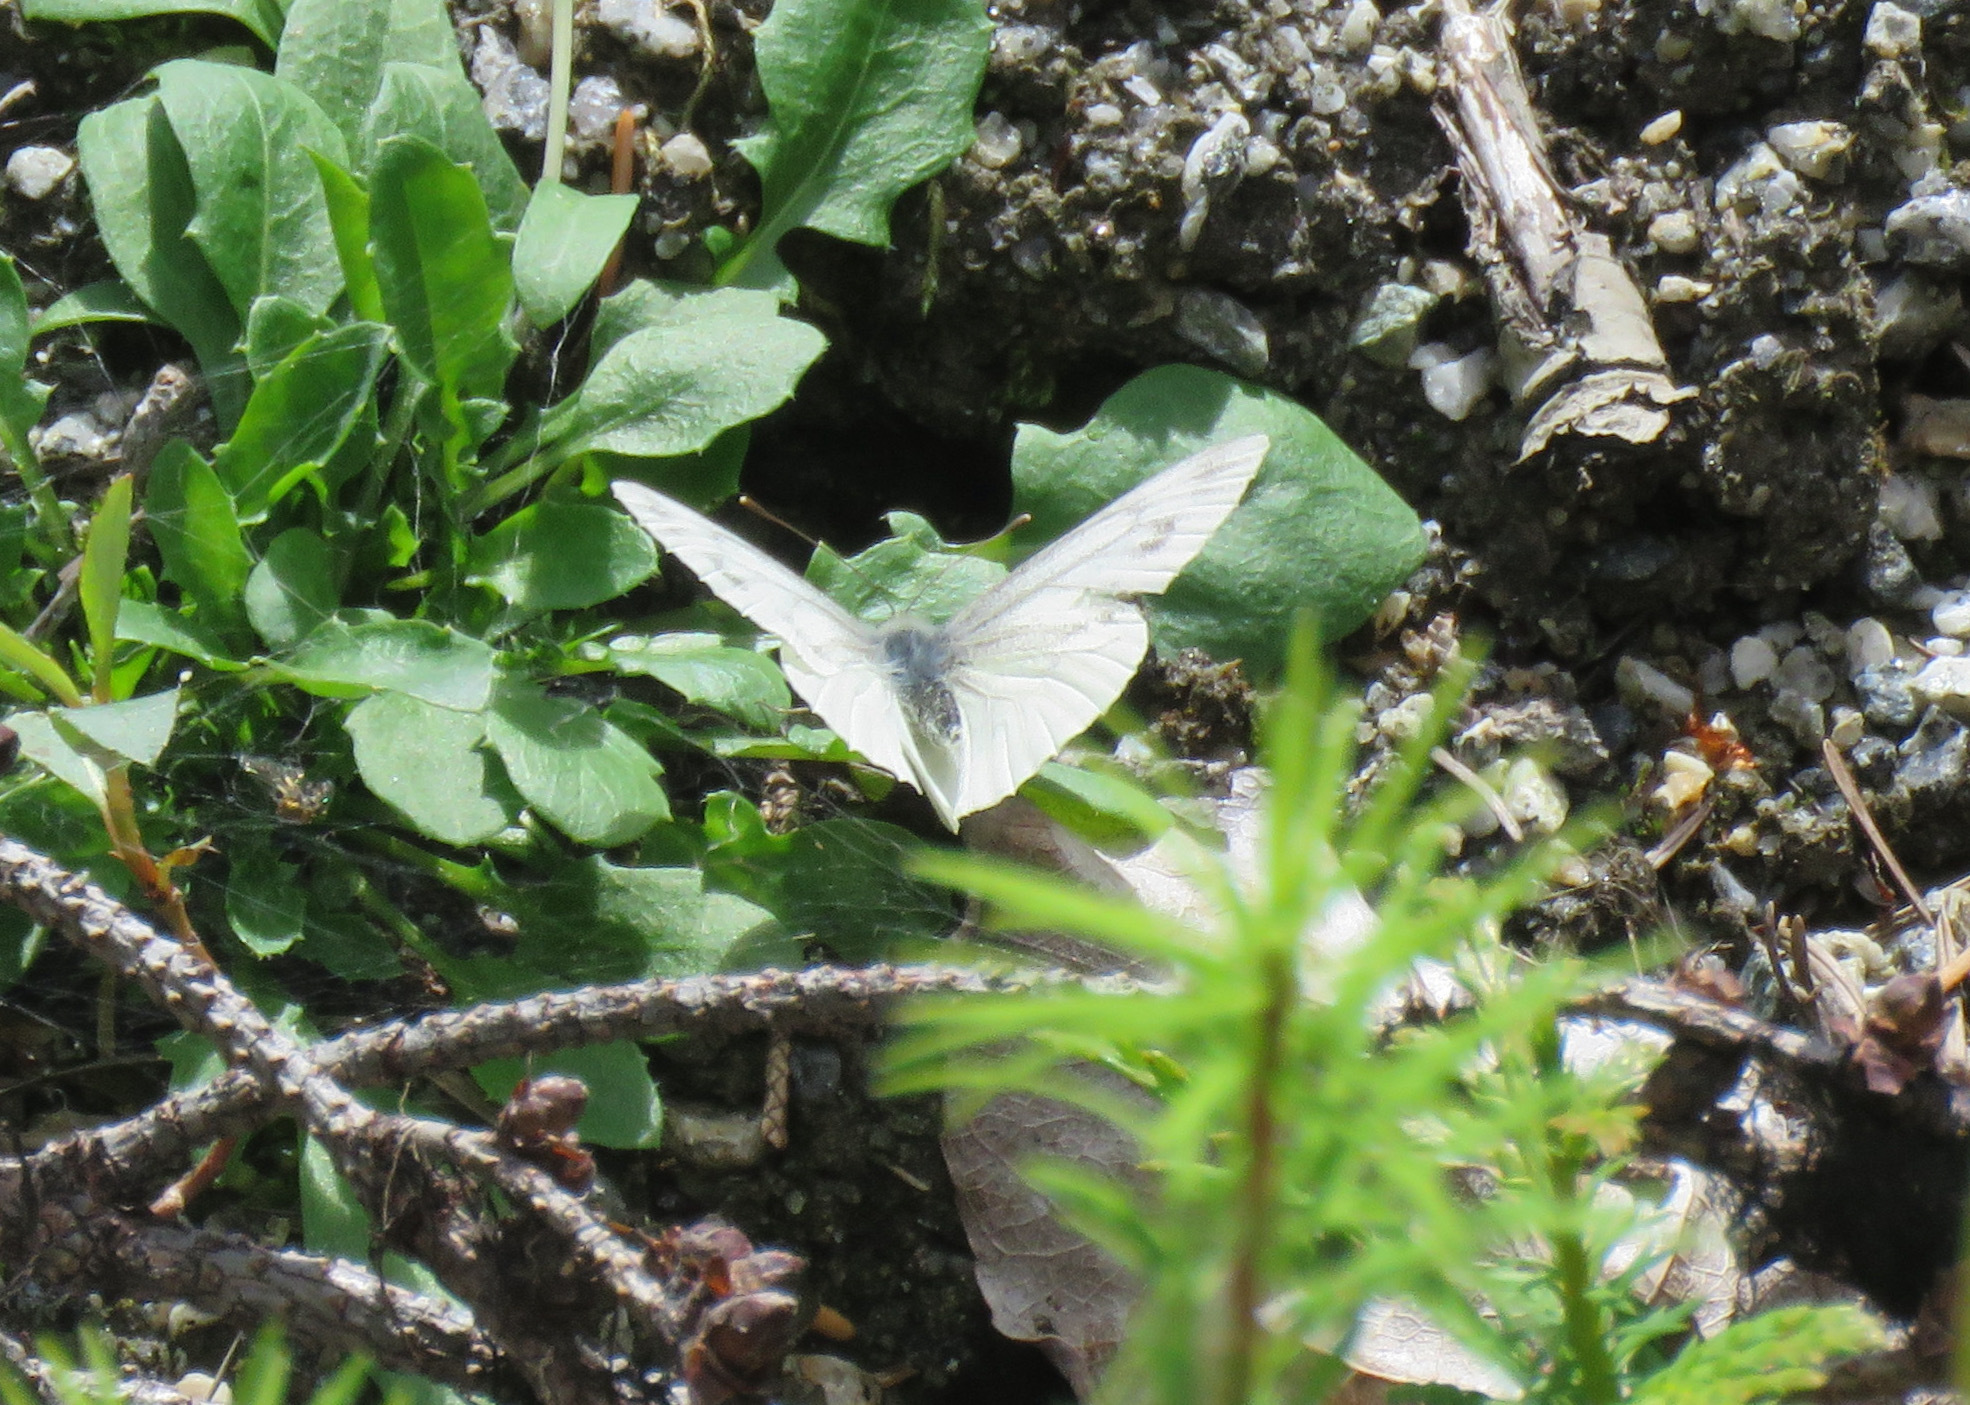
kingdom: Animalia
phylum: Arthropoda
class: Insecta
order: Lepidoptera
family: Pieridae
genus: Pieris
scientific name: Pieris marginalis
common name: Margined white
